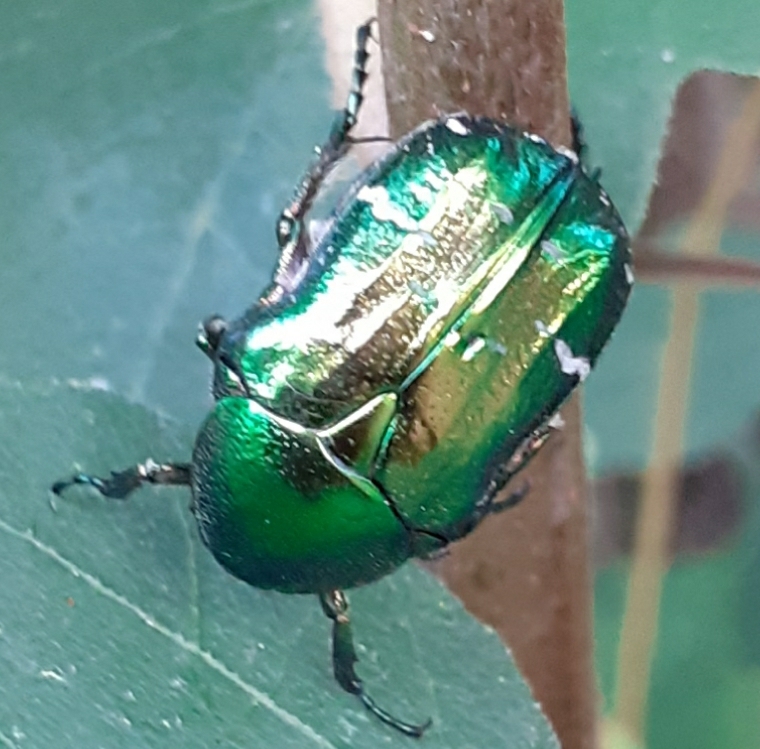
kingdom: Animalia
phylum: Arthropoda
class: Insecta
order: Coleoptera
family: Scarabaeidae
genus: Cetonia
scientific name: Cetonia aurata
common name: Rose chafer
